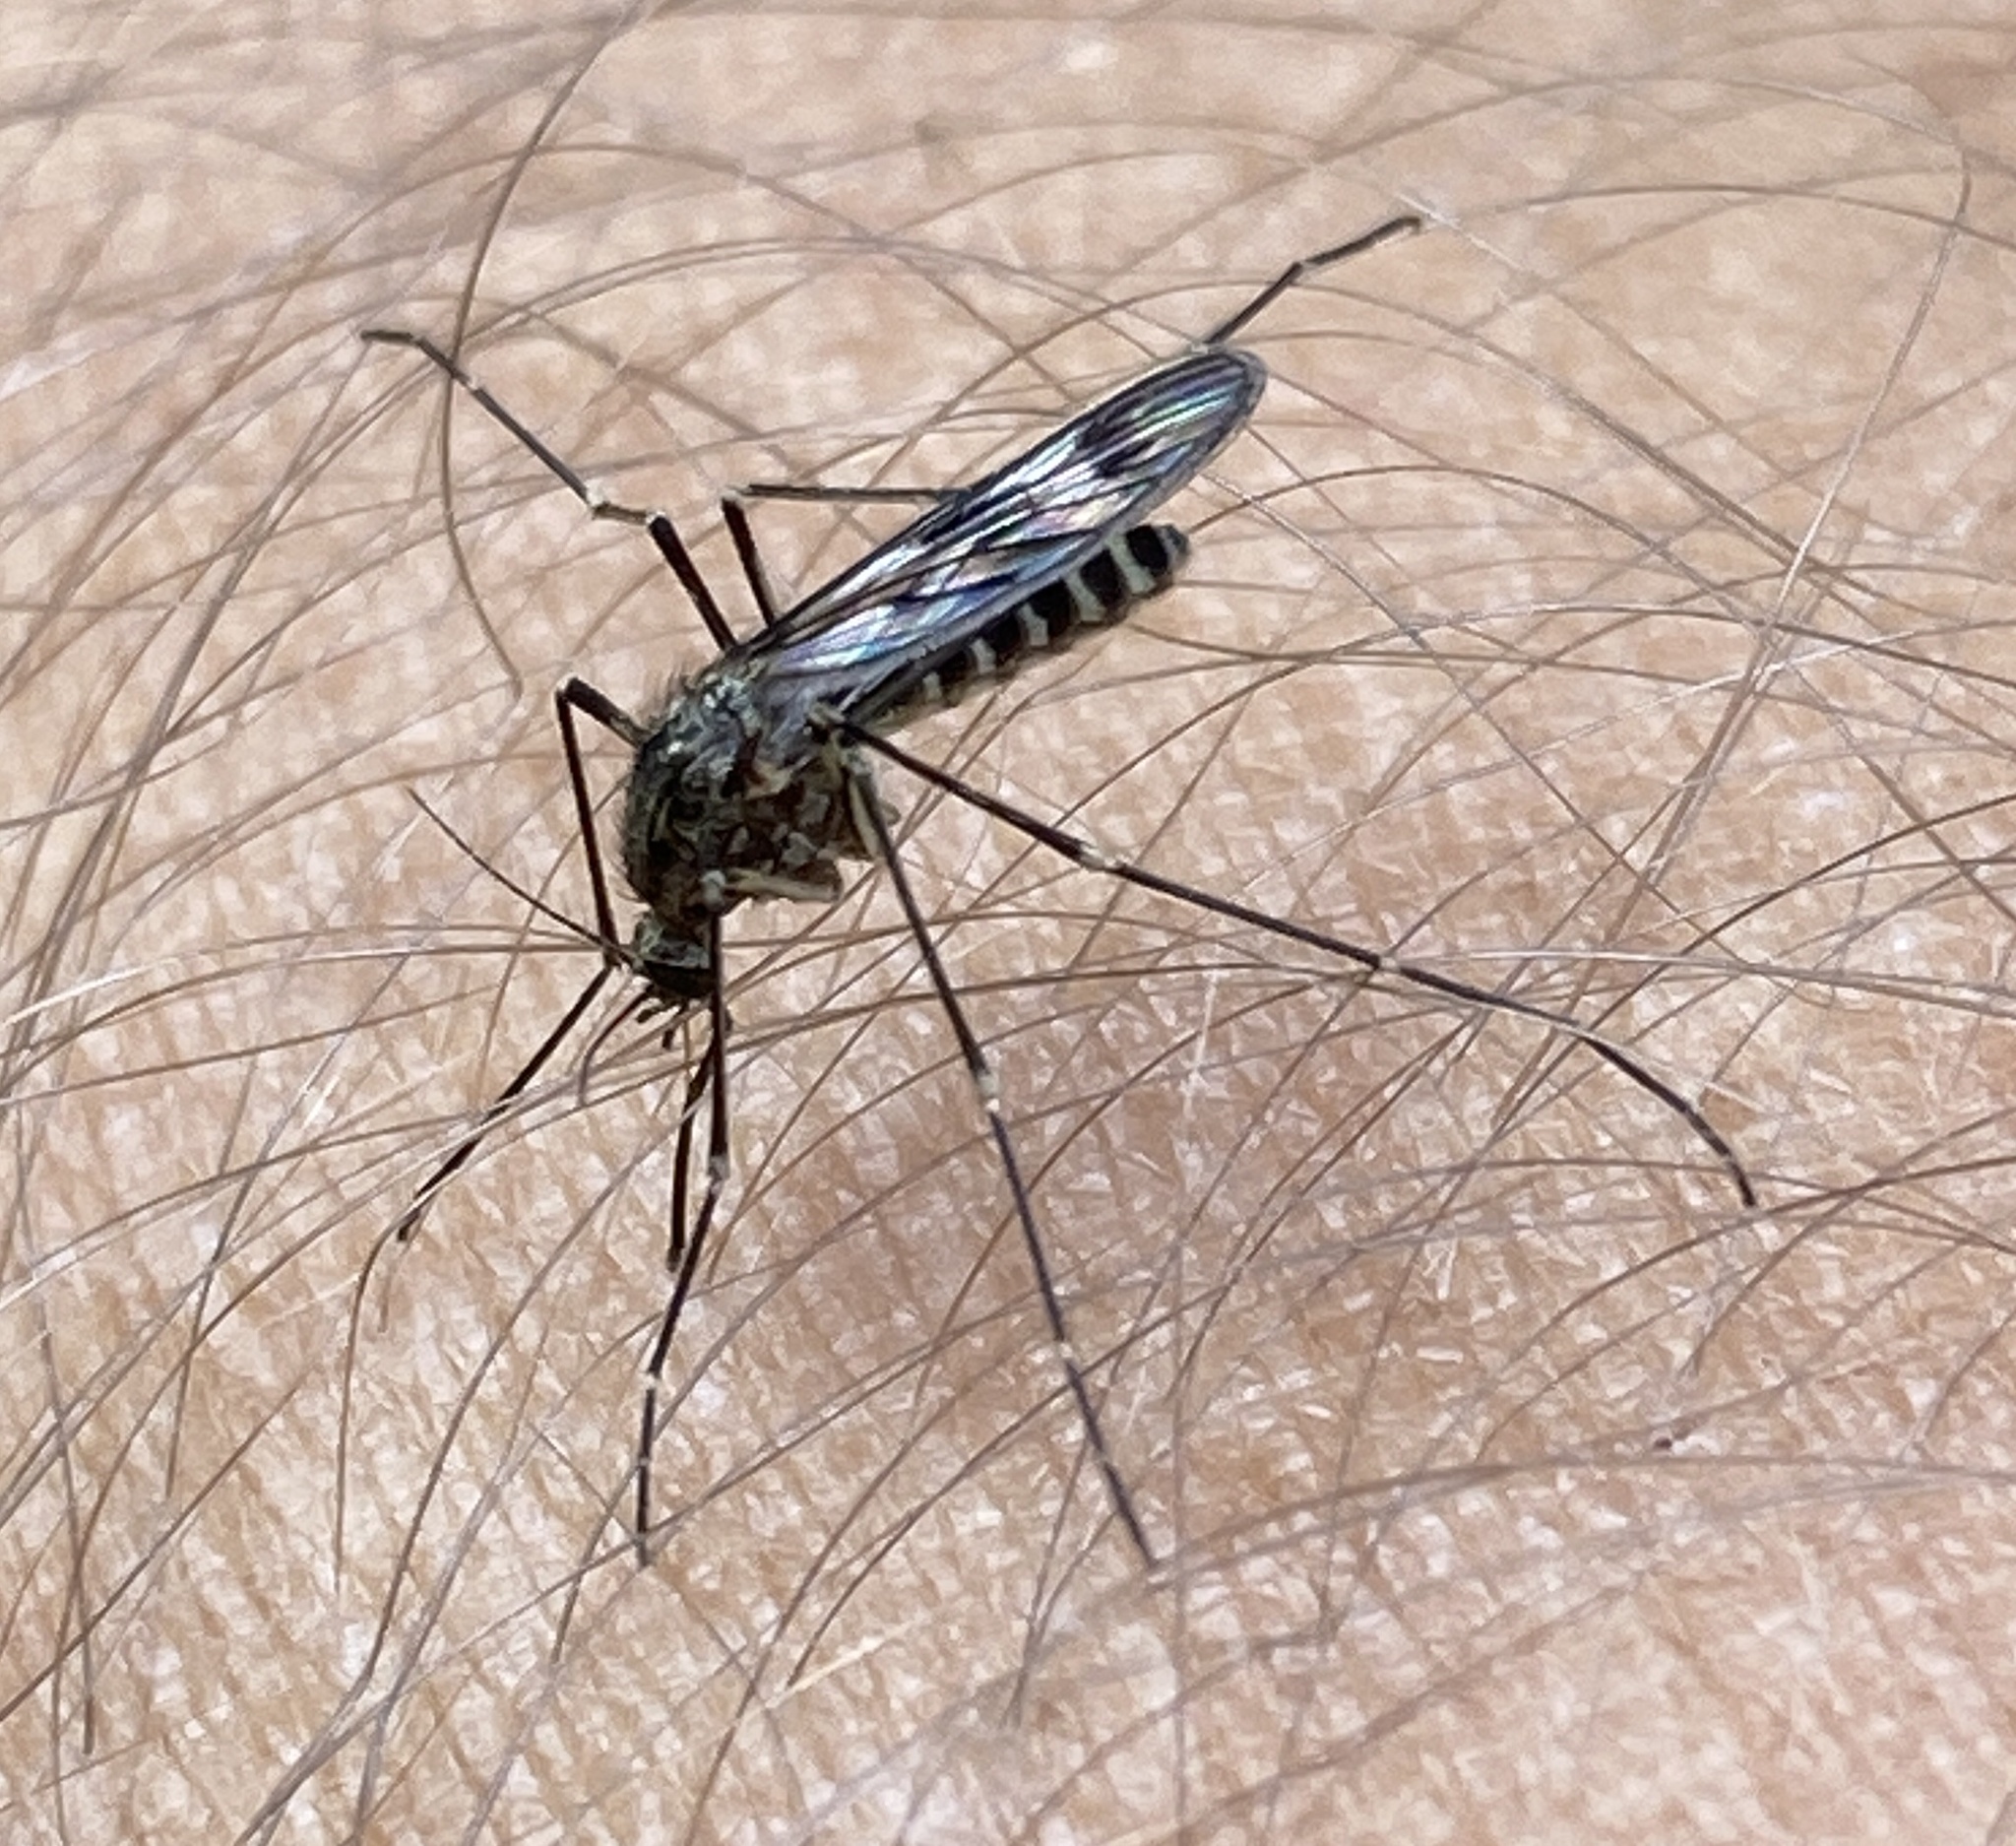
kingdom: Animalia
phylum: Arthropoda
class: Insecta
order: Diptera
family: Culicidae
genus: Culiseta
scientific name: Culiseta incidens
